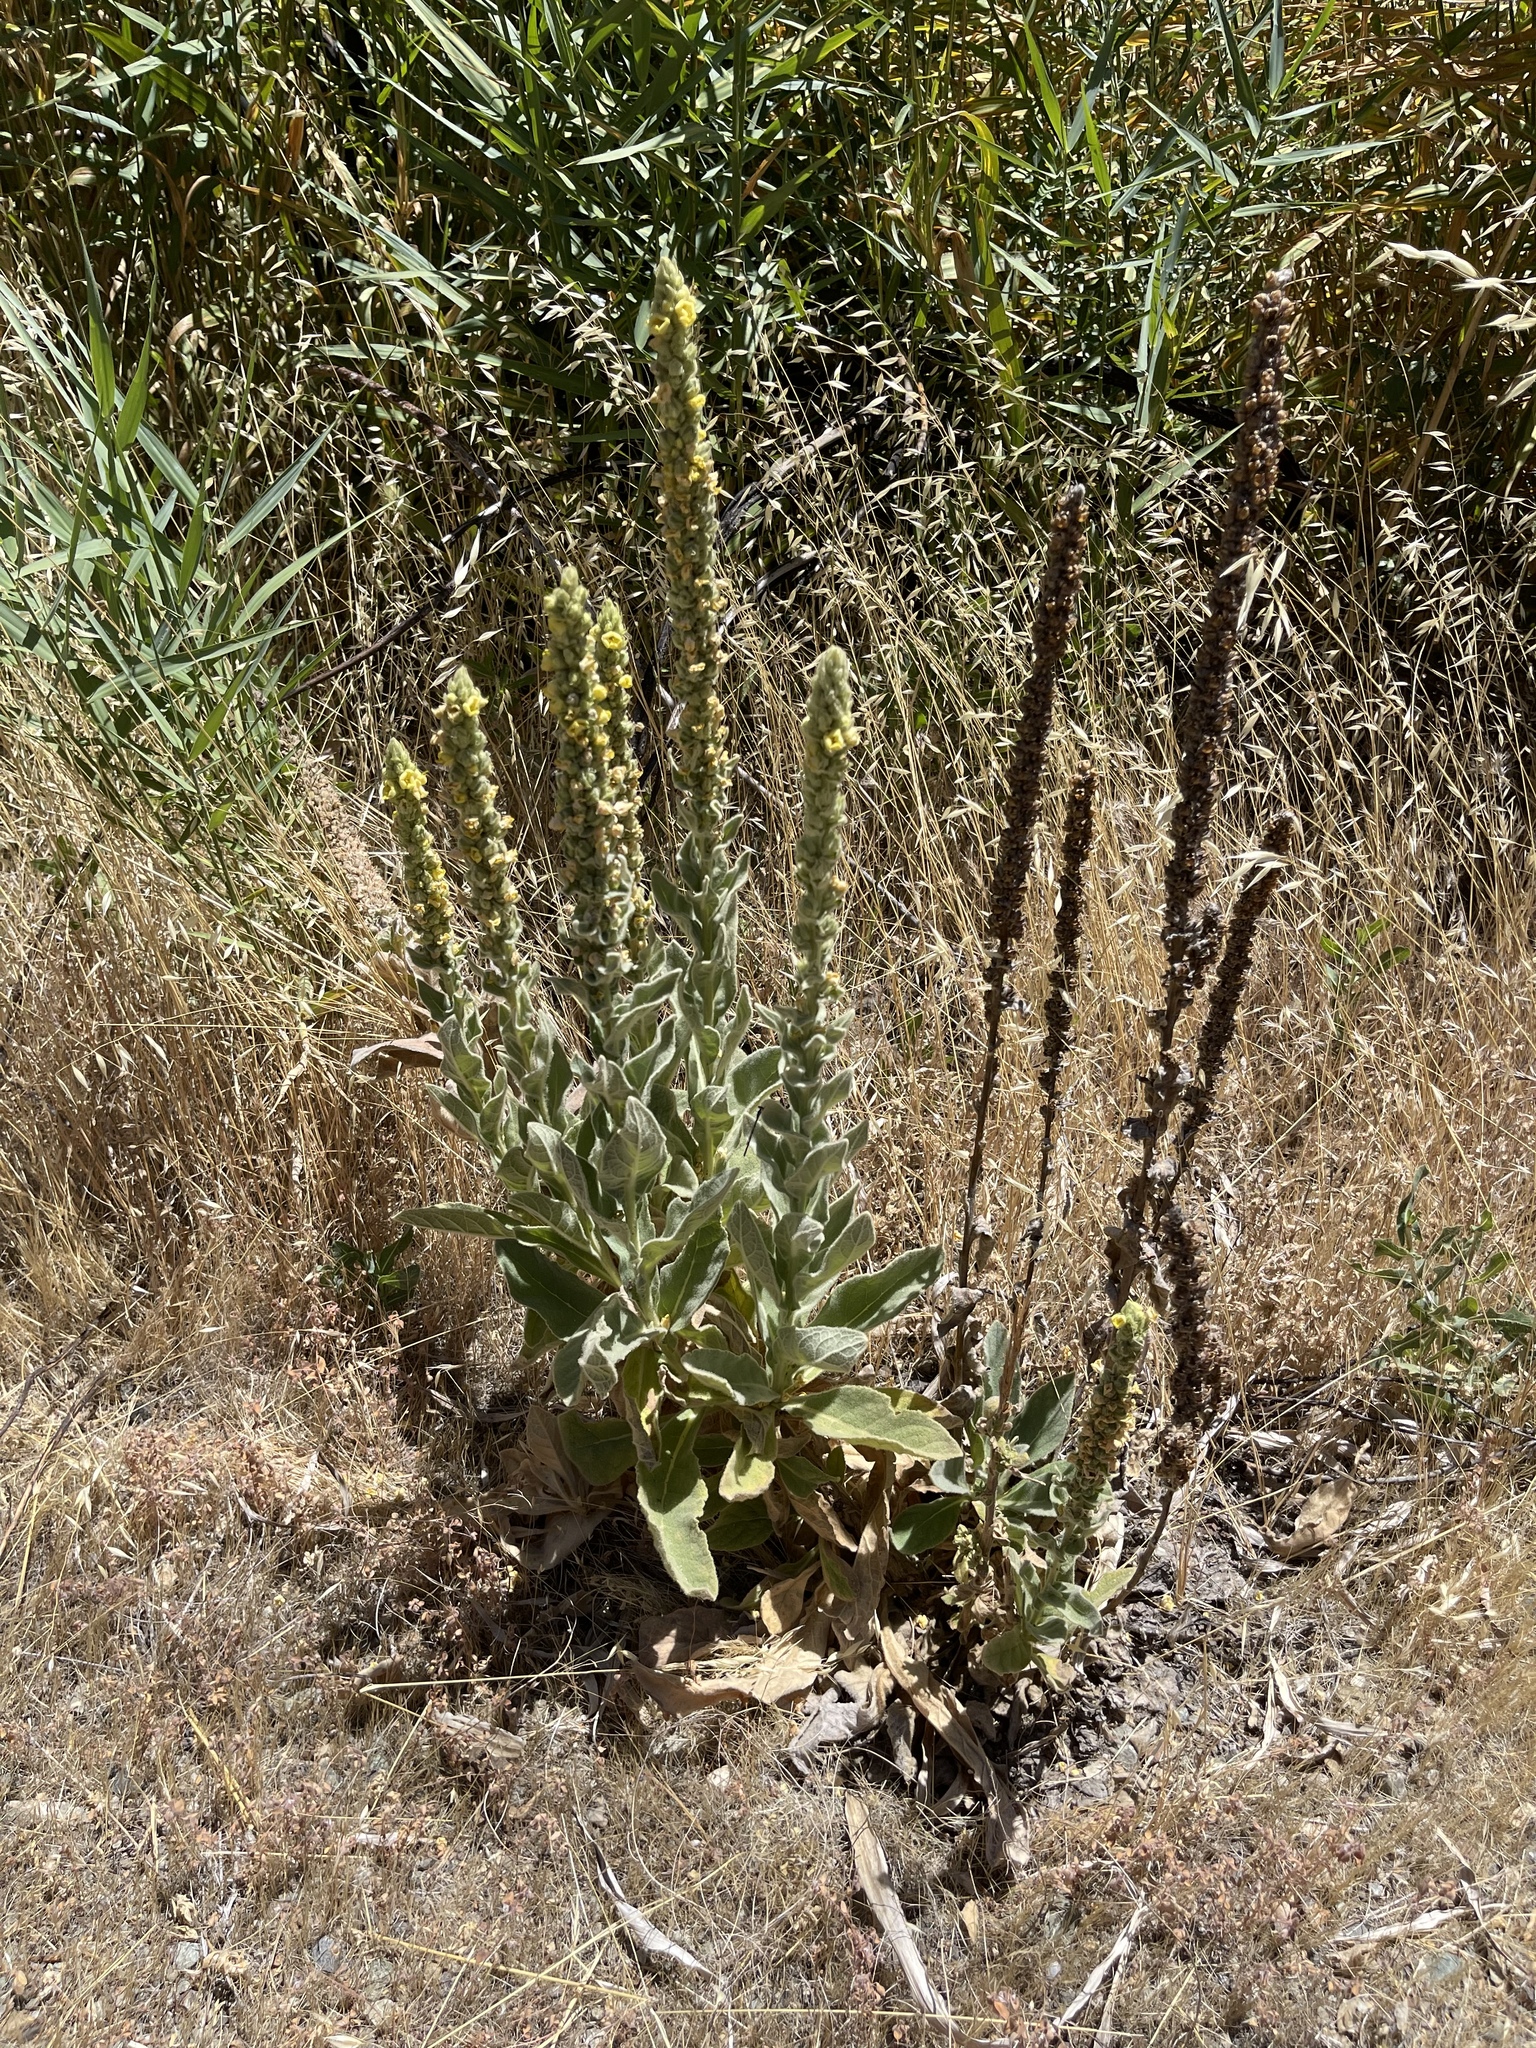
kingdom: Plantae
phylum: Tracheophyta
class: Magnoliopsida
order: Lamiales
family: Scrophulariaceae
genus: Verbascum
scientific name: Verbascum thapsus
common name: Common mullein
